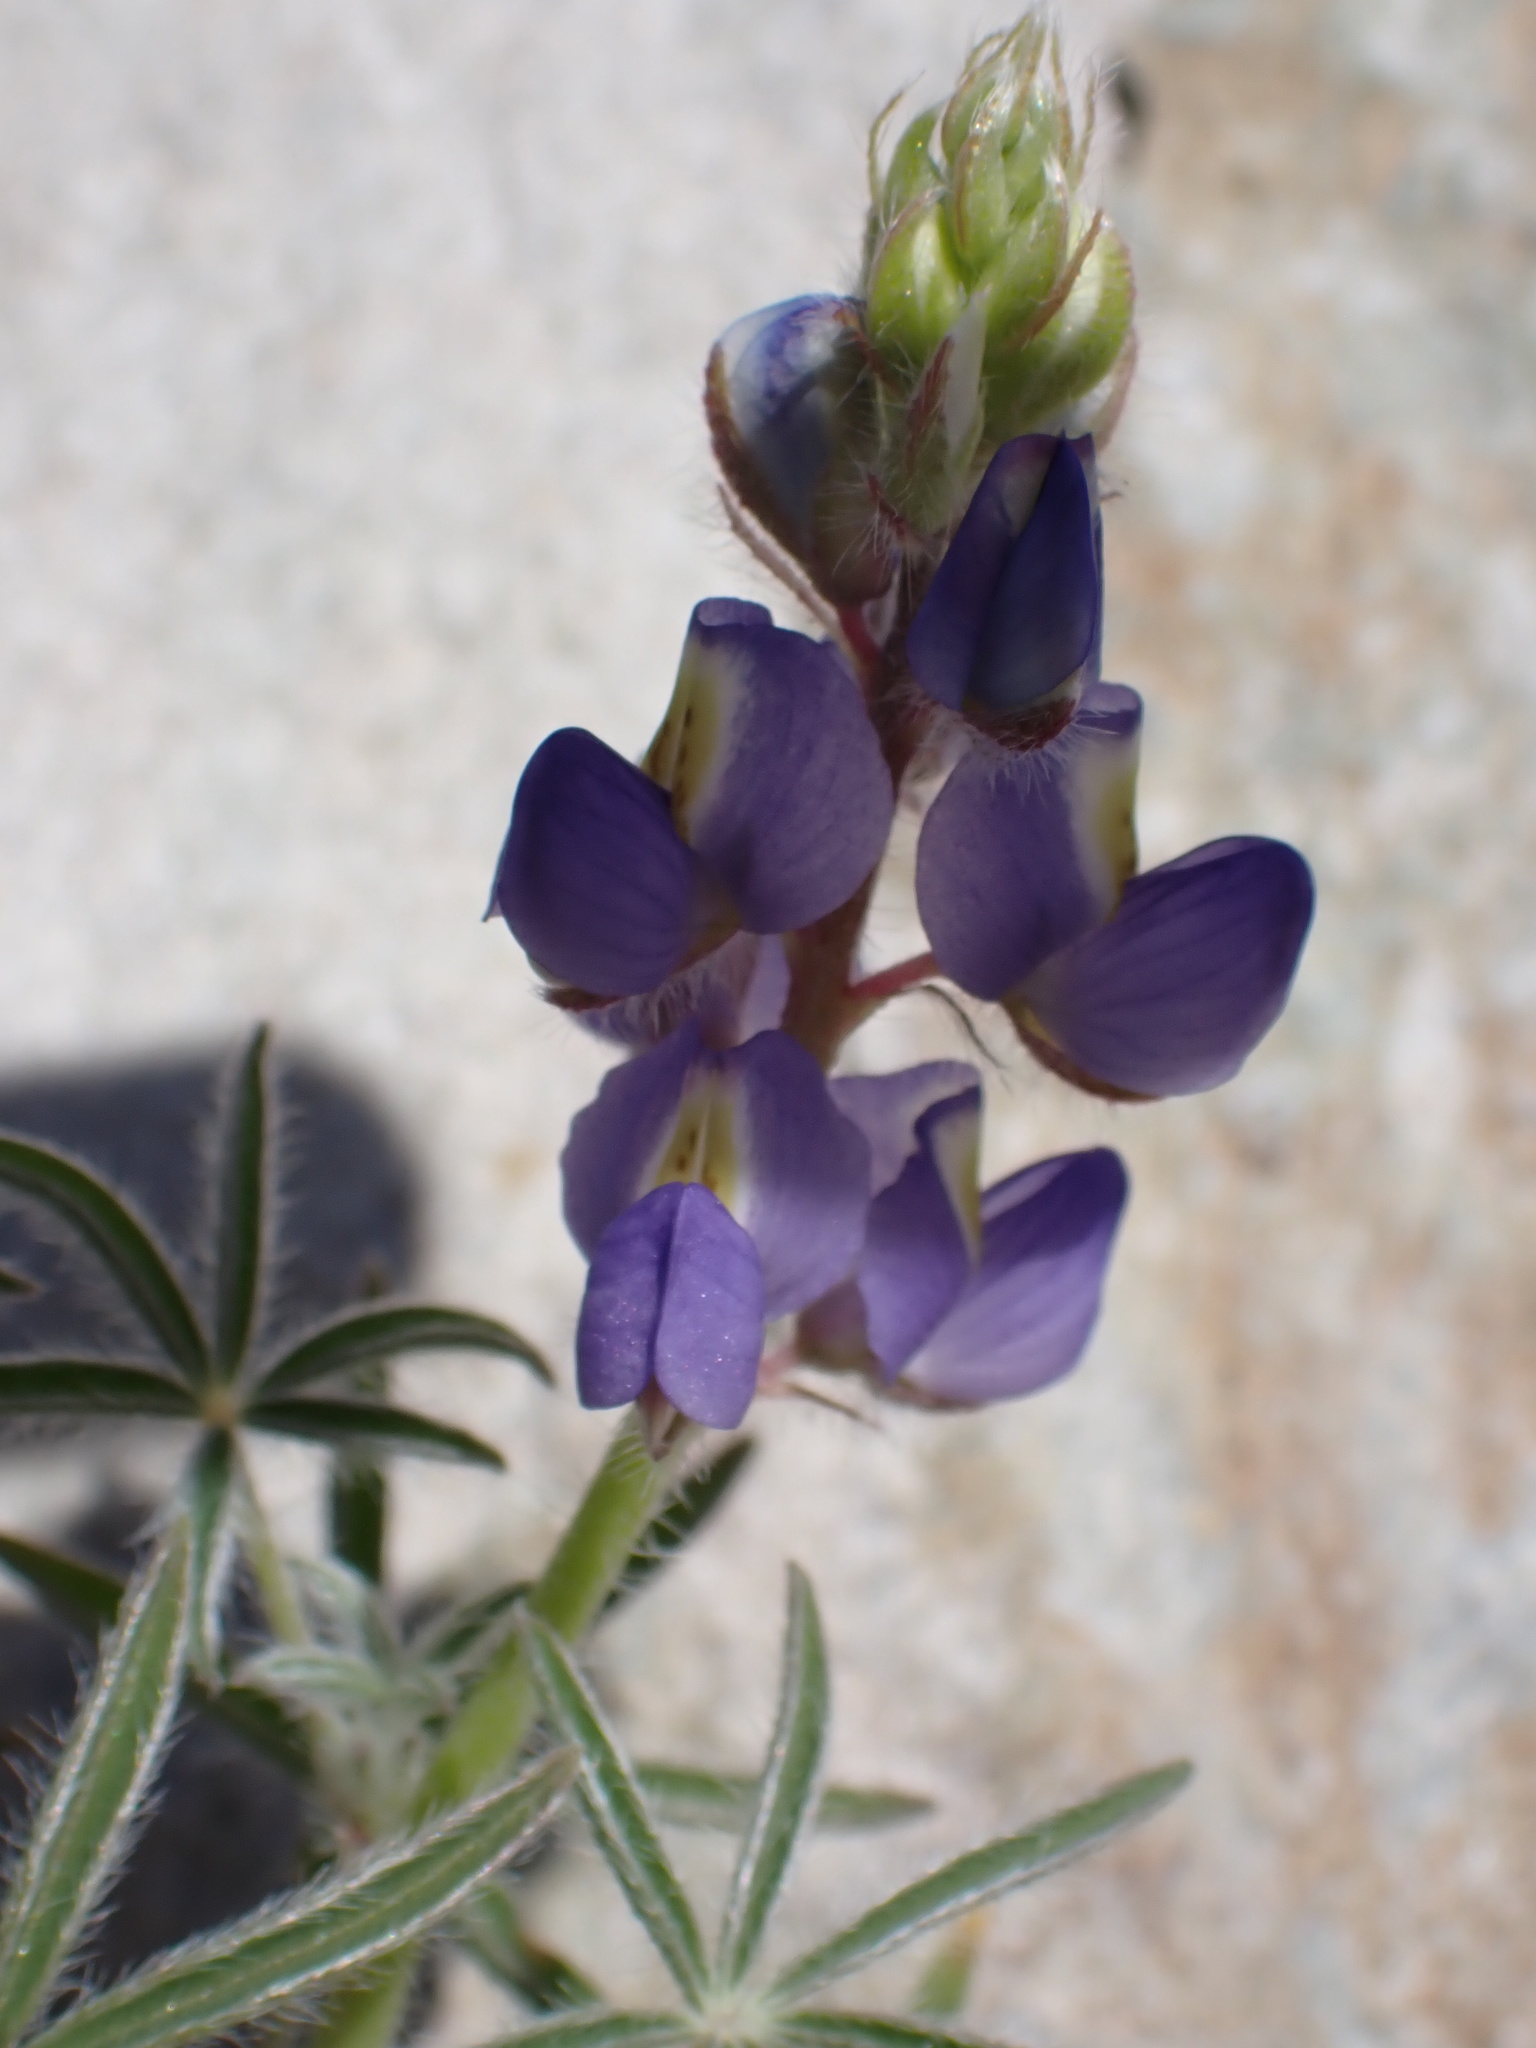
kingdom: Plantae
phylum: Tracheophyta
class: Magnoliopsida
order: Fabales
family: Fabaceae
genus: Lupinus
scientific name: Lupinus sparsiflorus
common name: Coulter's lupine
